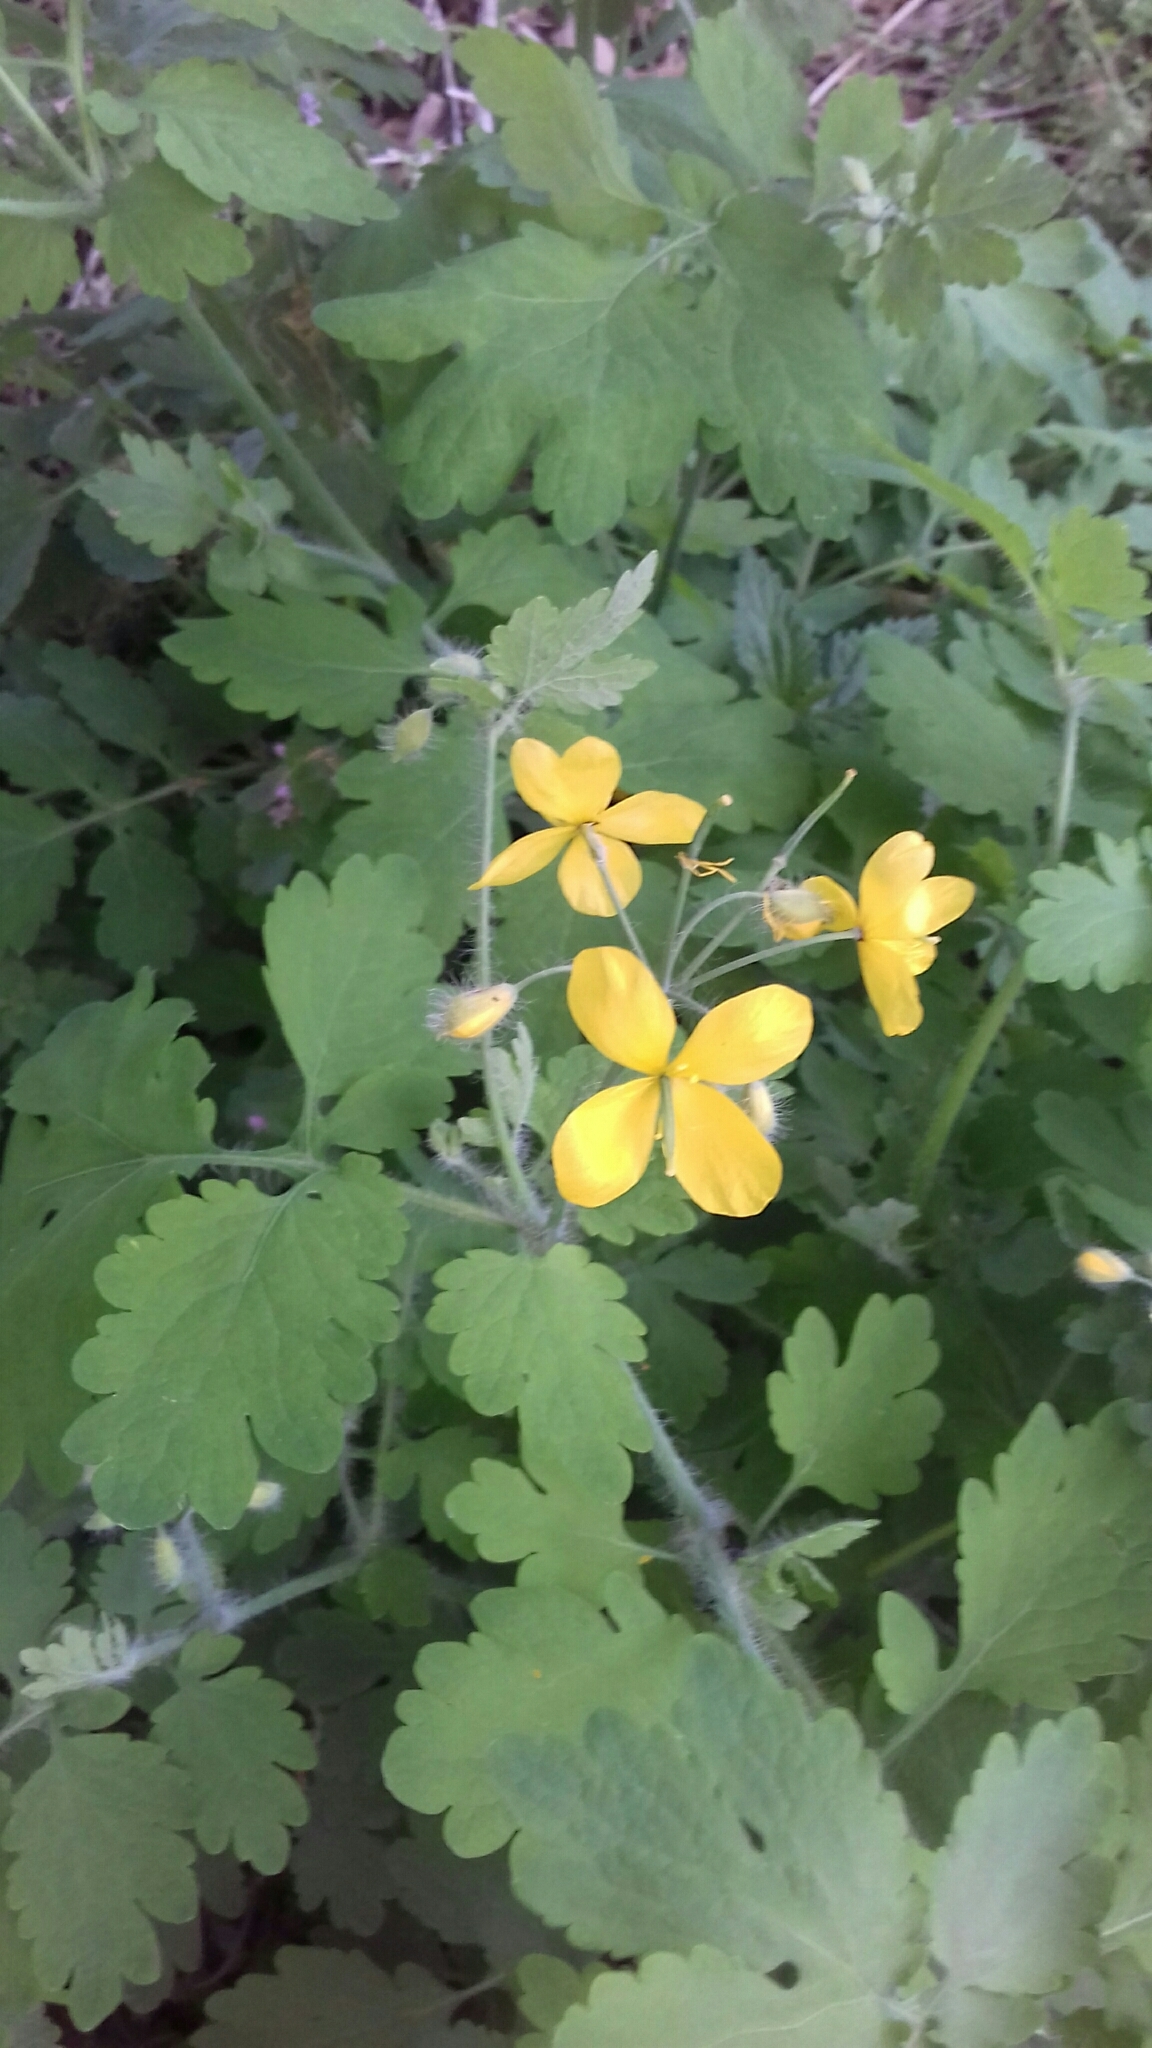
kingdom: Plantae
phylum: Tracheophyta
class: Magnoliopsida
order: Ranunculales
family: Papaveraceae
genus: Chelidonium
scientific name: Chelidonium majus
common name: Greater celandine
